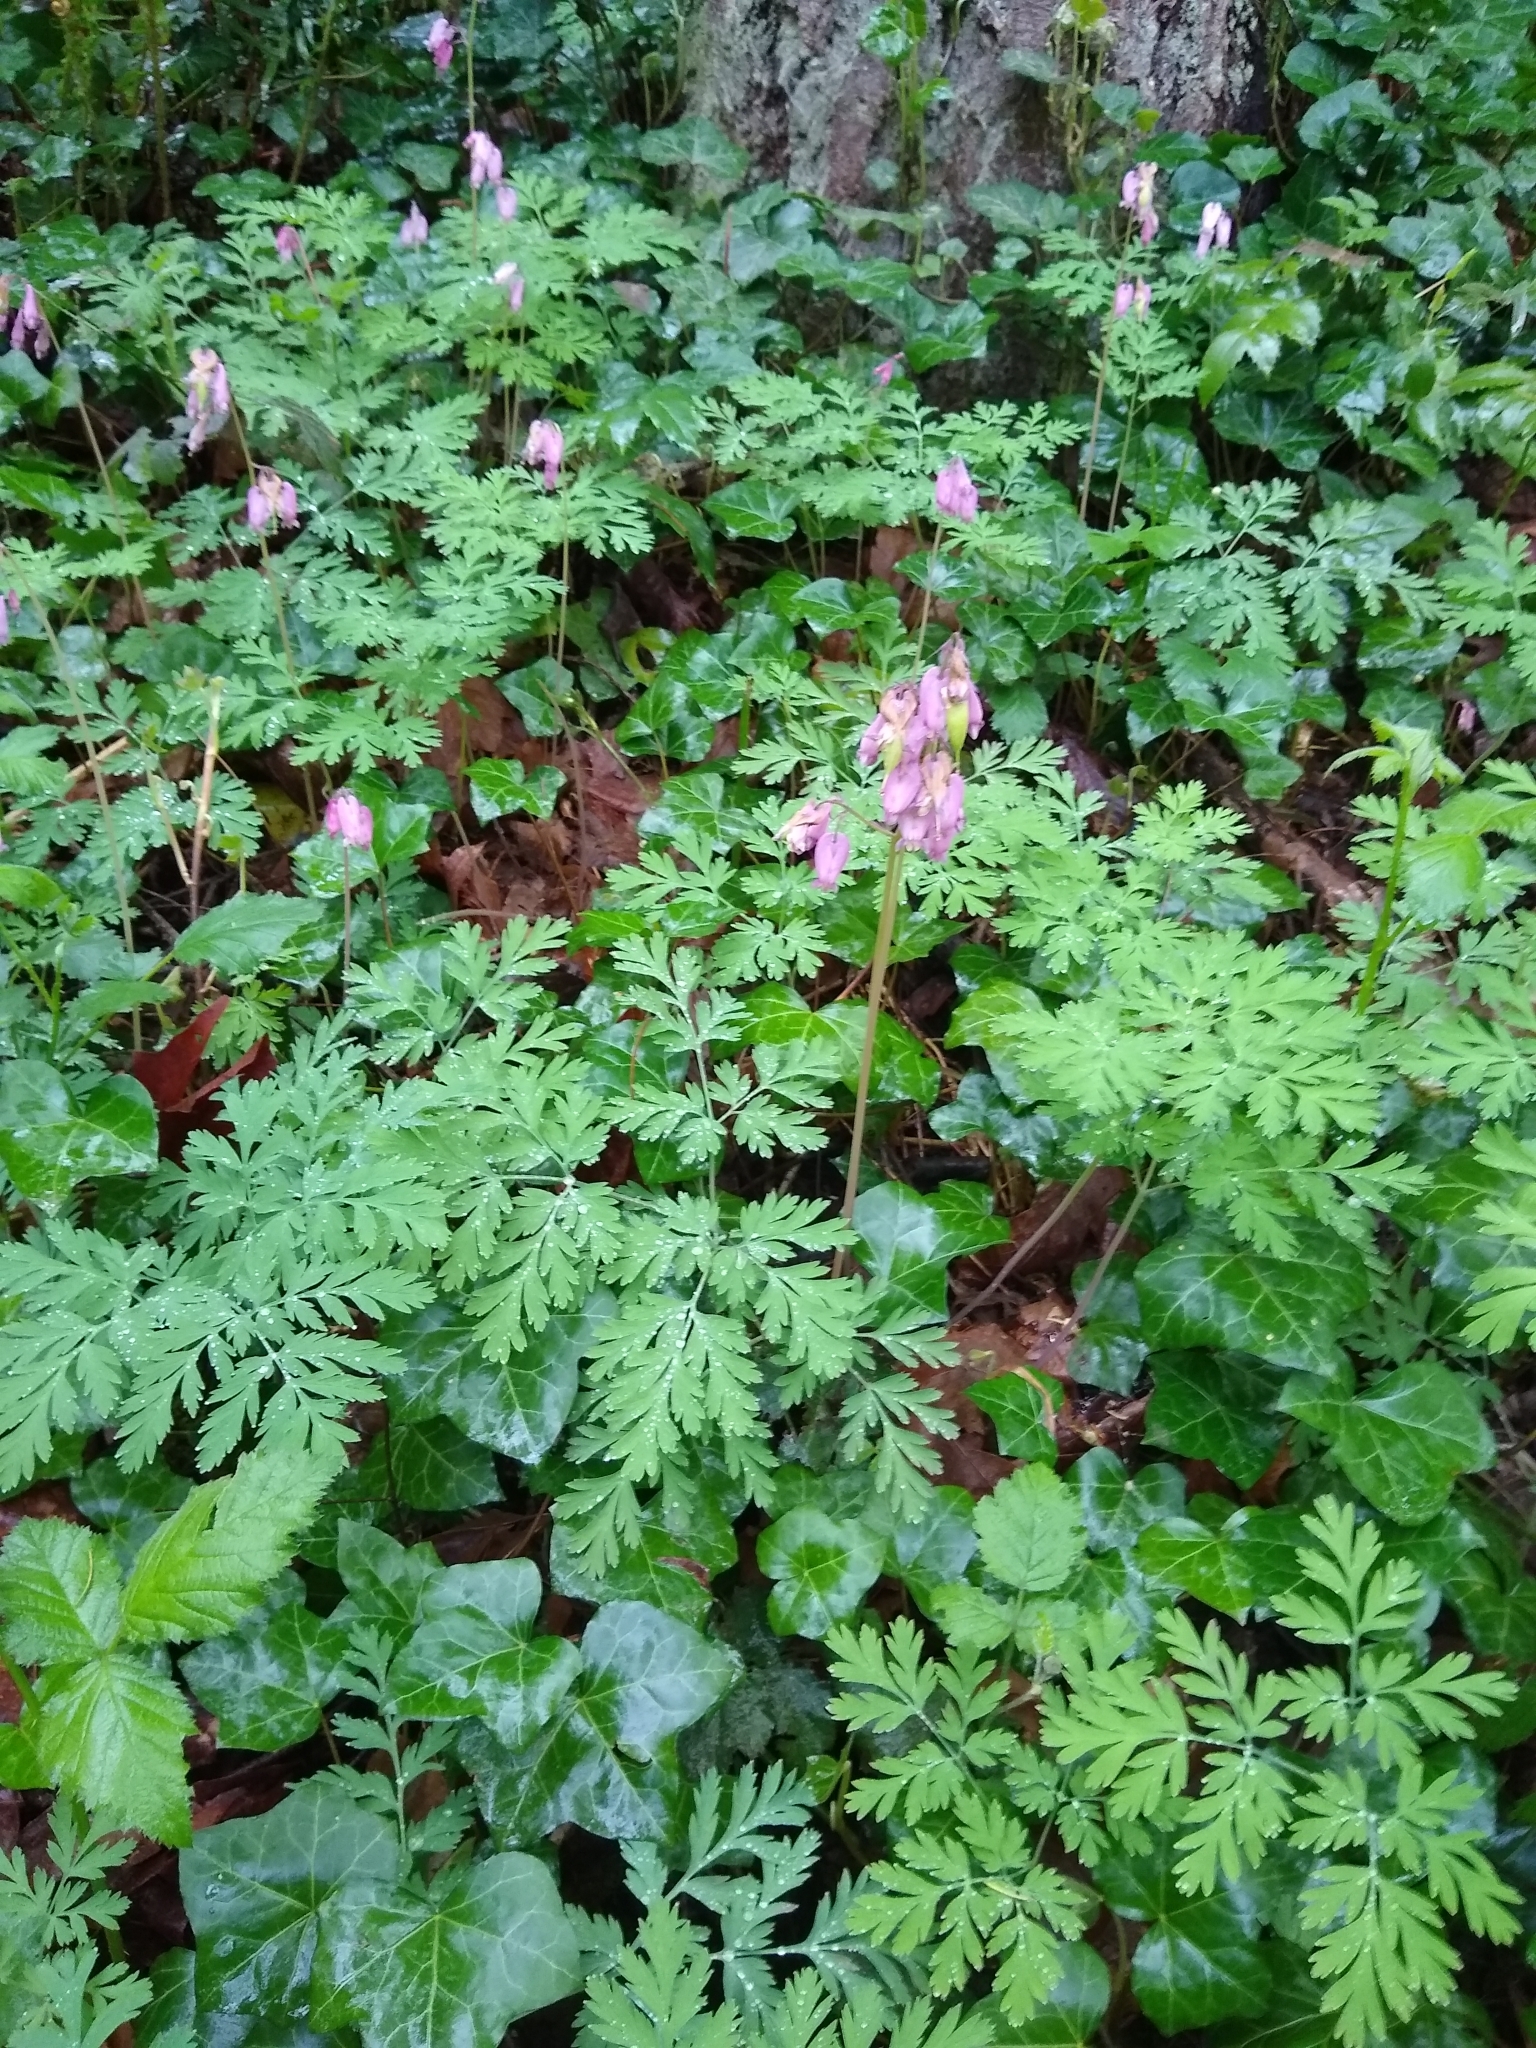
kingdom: Plantae
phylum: Tracheophyta
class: Magnoliopsida
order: Ranunculales
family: Papaveraceae
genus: Dicentra
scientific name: Dicentra formosa
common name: Bleeding-heart
